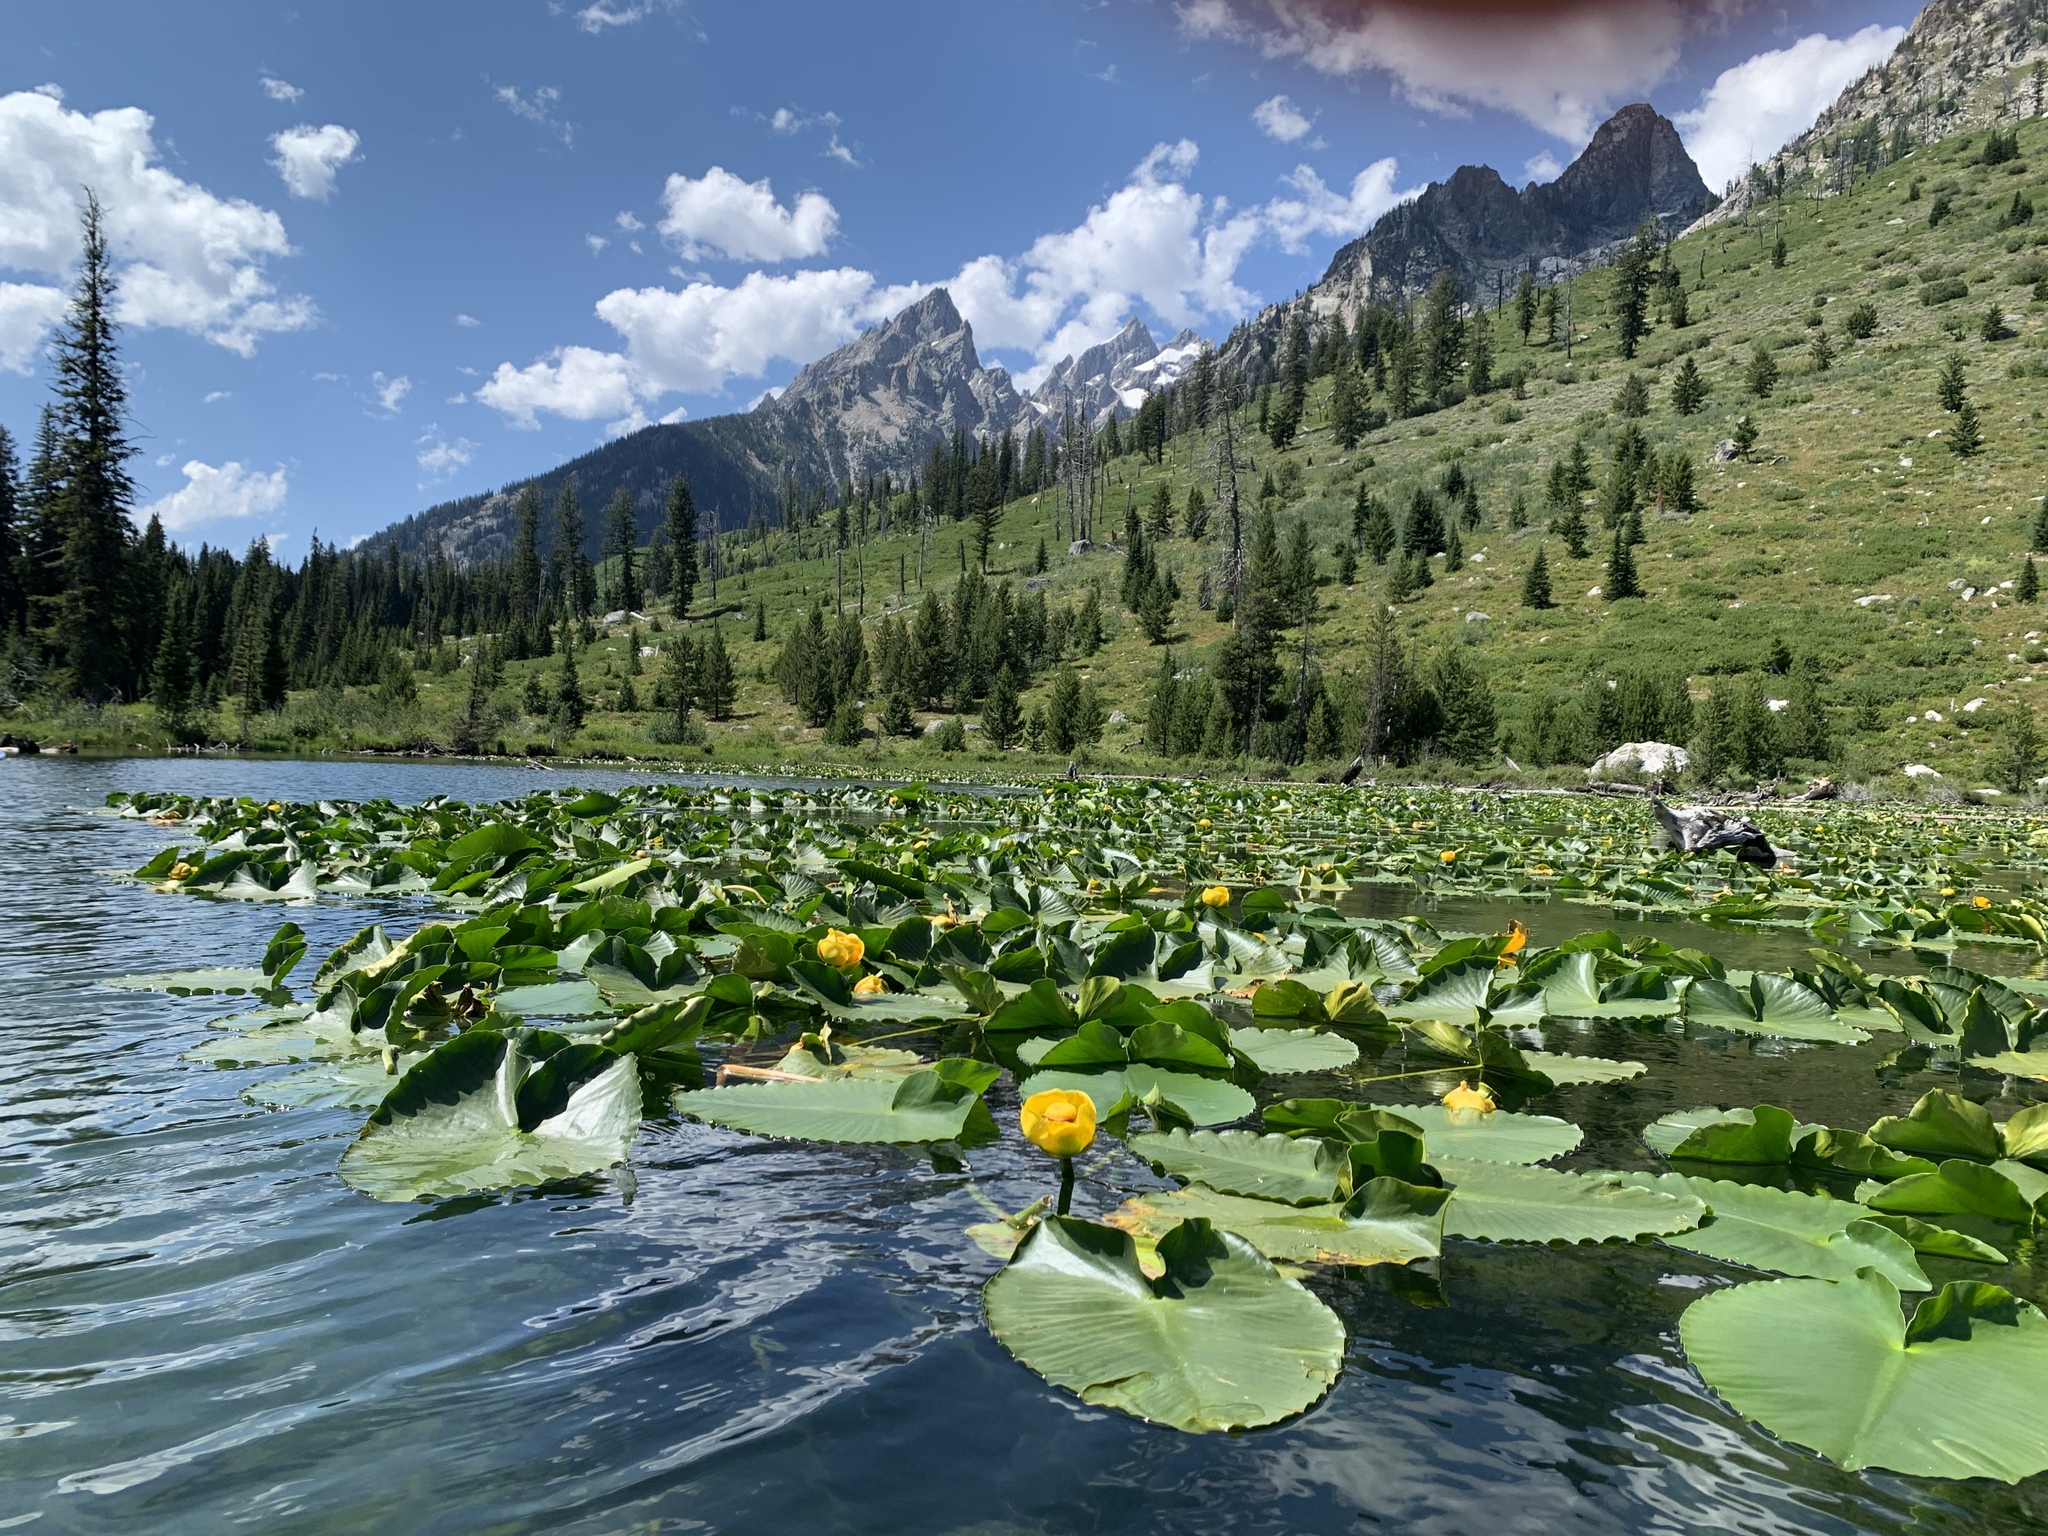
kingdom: Plantae
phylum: Tracheophyta
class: Magnoliopsida
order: Nymphaeales
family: Nymphaeaceae
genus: Nuphar
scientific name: Nuphar polysepala
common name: Rocky mountain cow-lily
